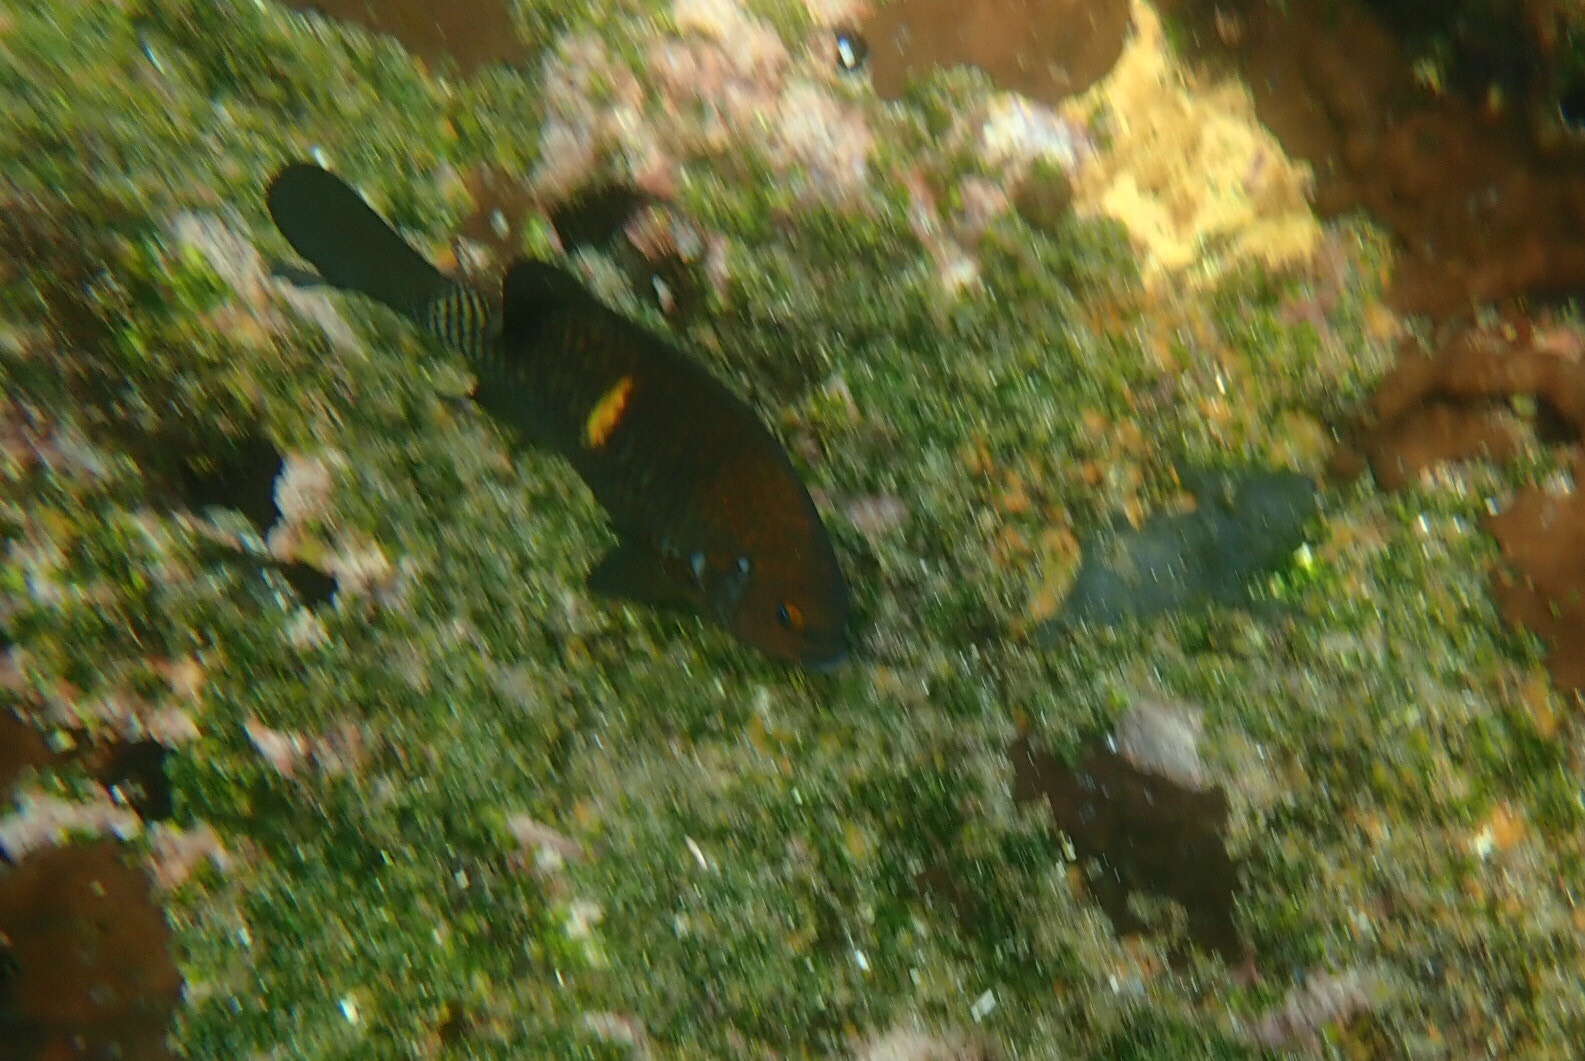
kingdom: Animalia
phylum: Chordata
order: Perciformes
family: Pomacentridae
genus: Nexilosus
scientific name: Nexilosus latifrons
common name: Coquito damsel
